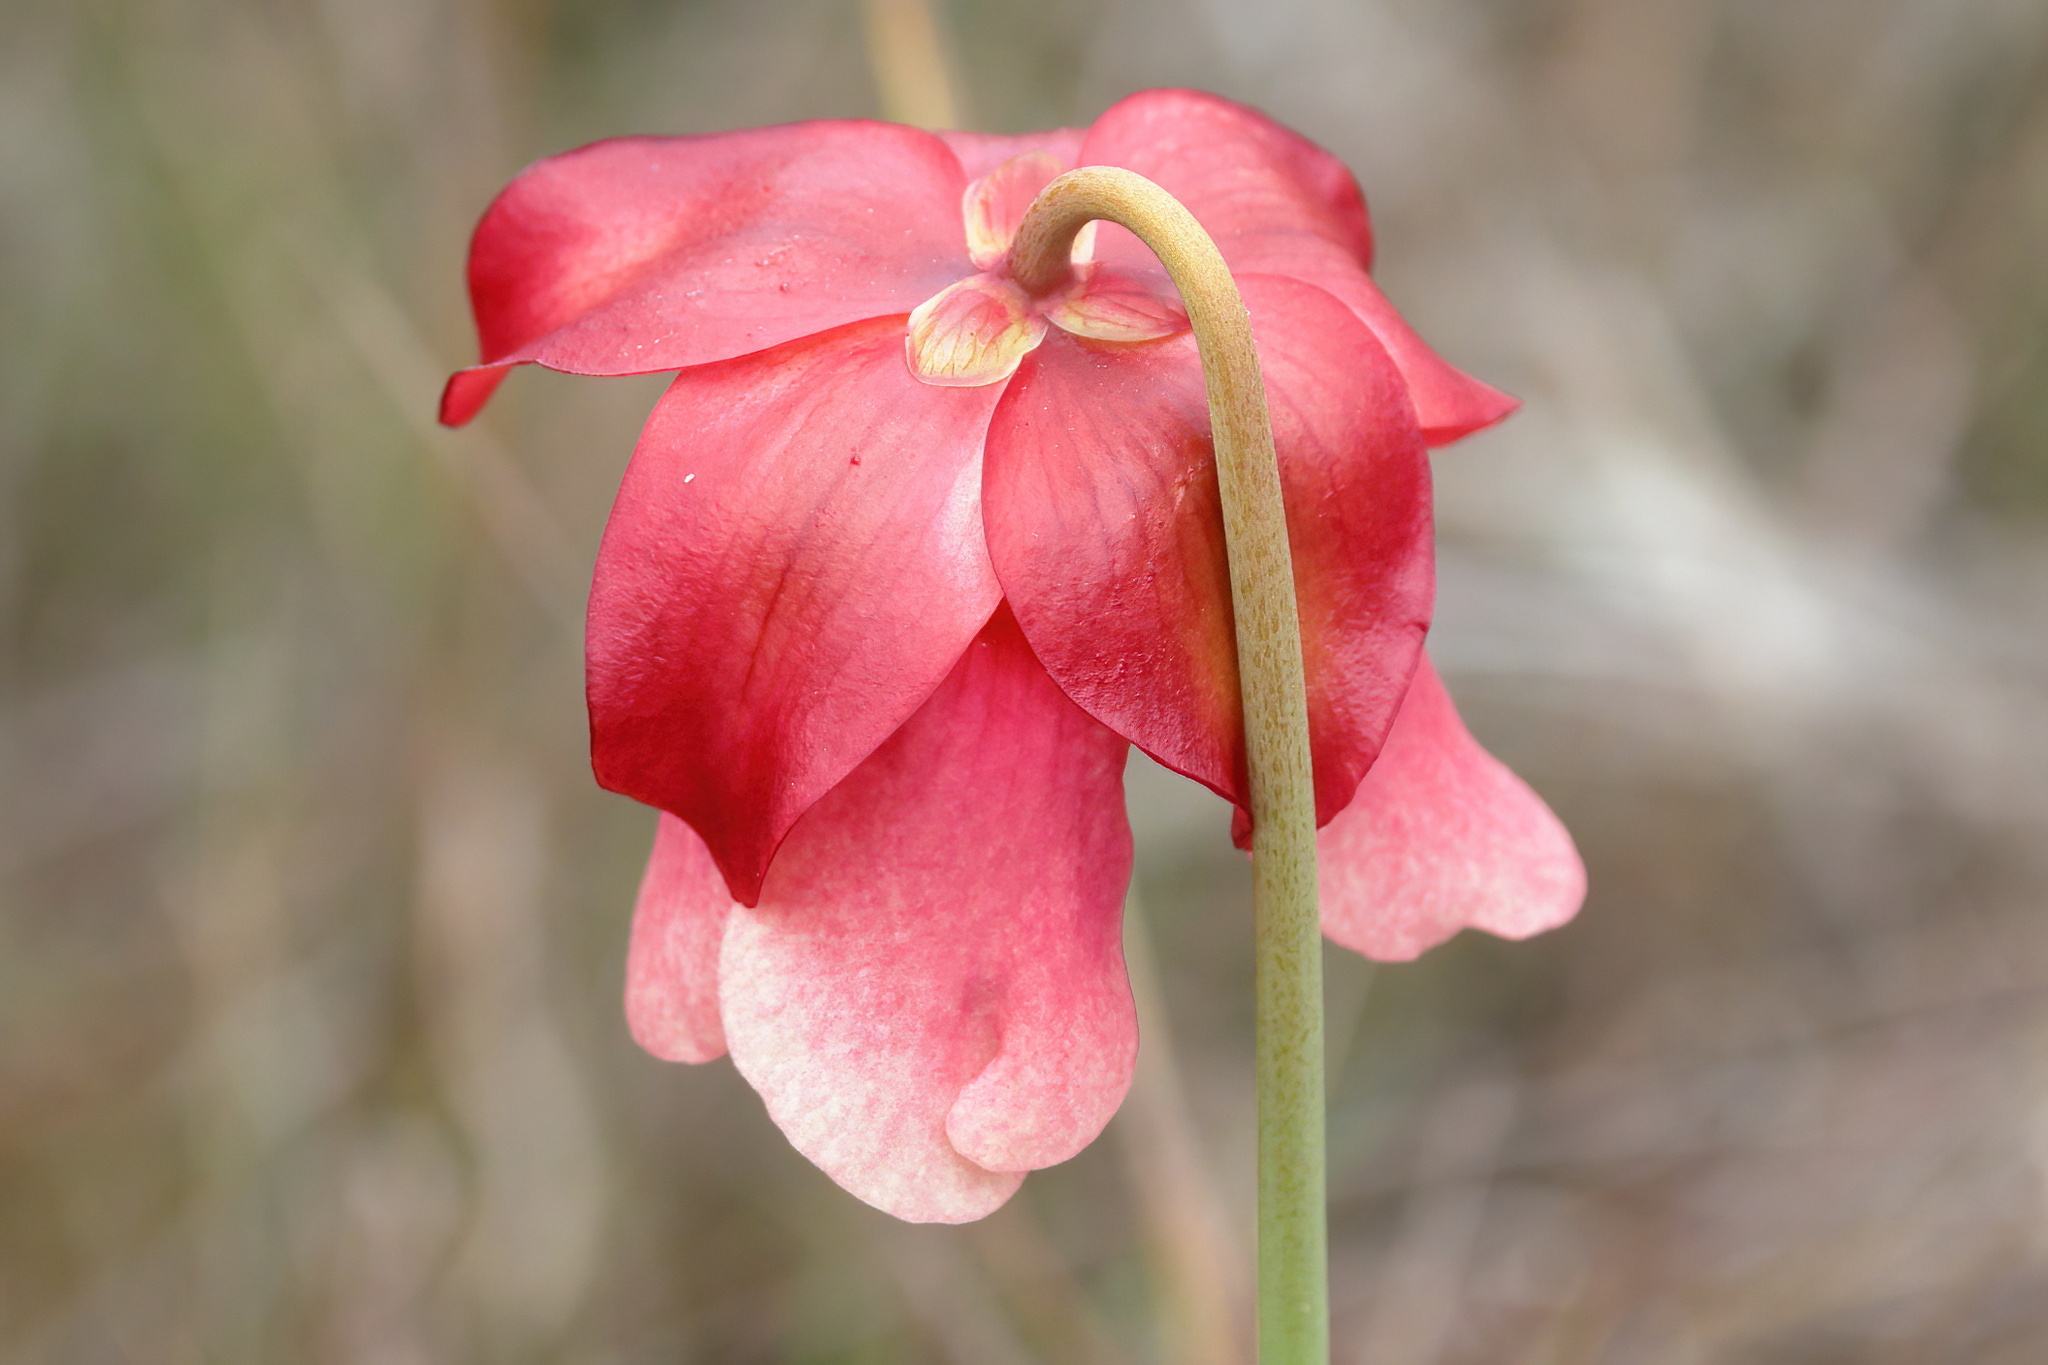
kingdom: Plantae
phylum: Tracheophyta
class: Magnoliopsida
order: Ericales
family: Sarraceniaceae
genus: Sarracenia
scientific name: Sarracenia areolata
